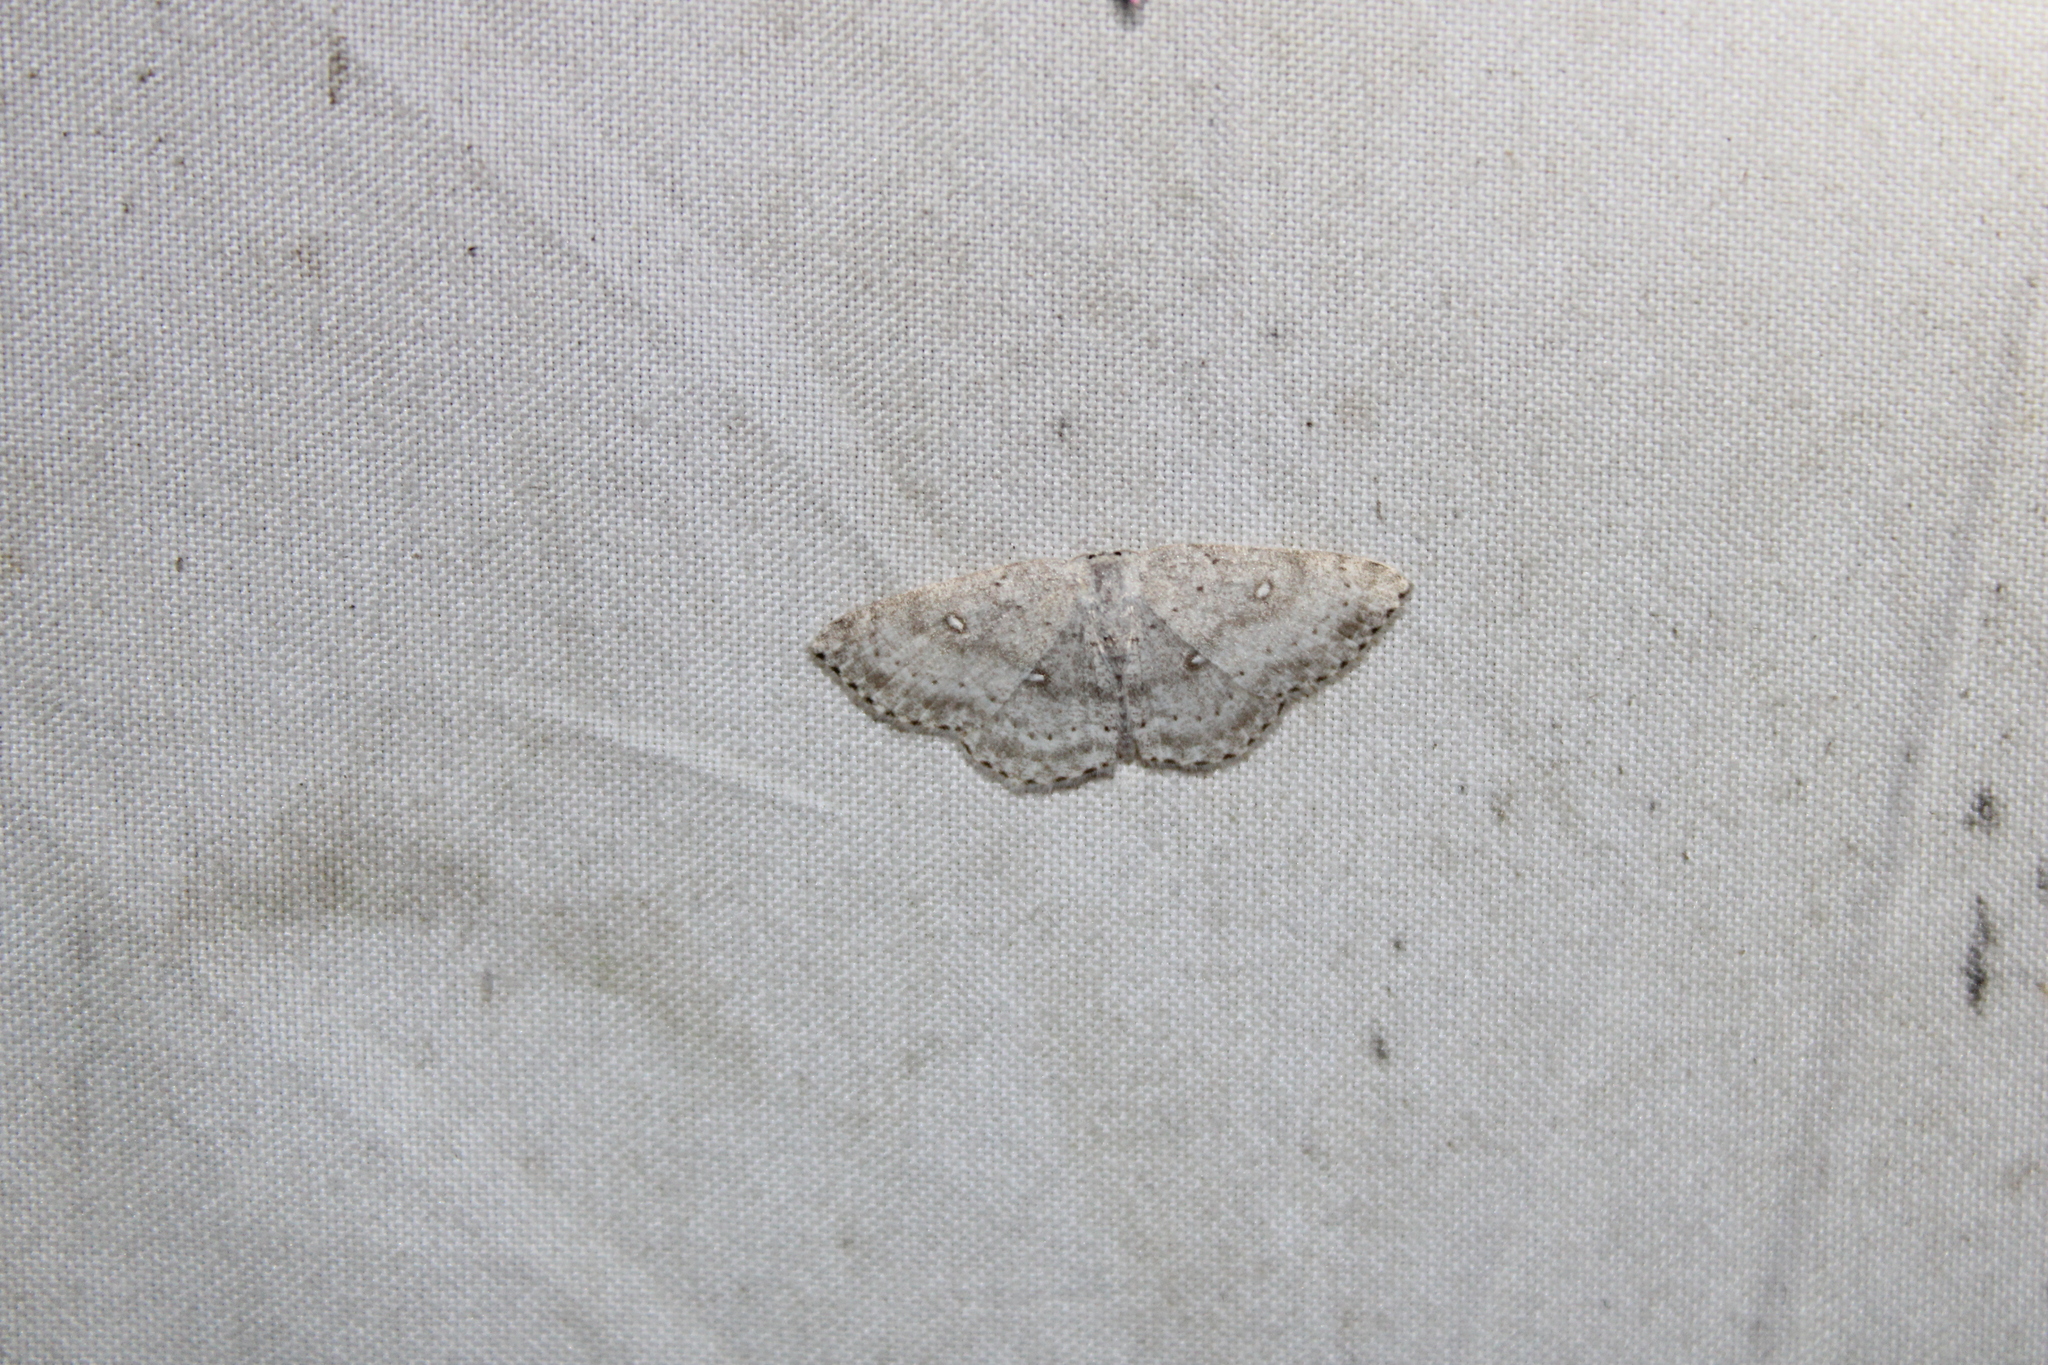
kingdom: Animalia
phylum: Arthropoda
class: Insecta
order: Lepidoptera
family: Geometridae
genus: Cyclophora
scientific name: Cyclophora pendulinaria
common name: Sweet fern geometer
